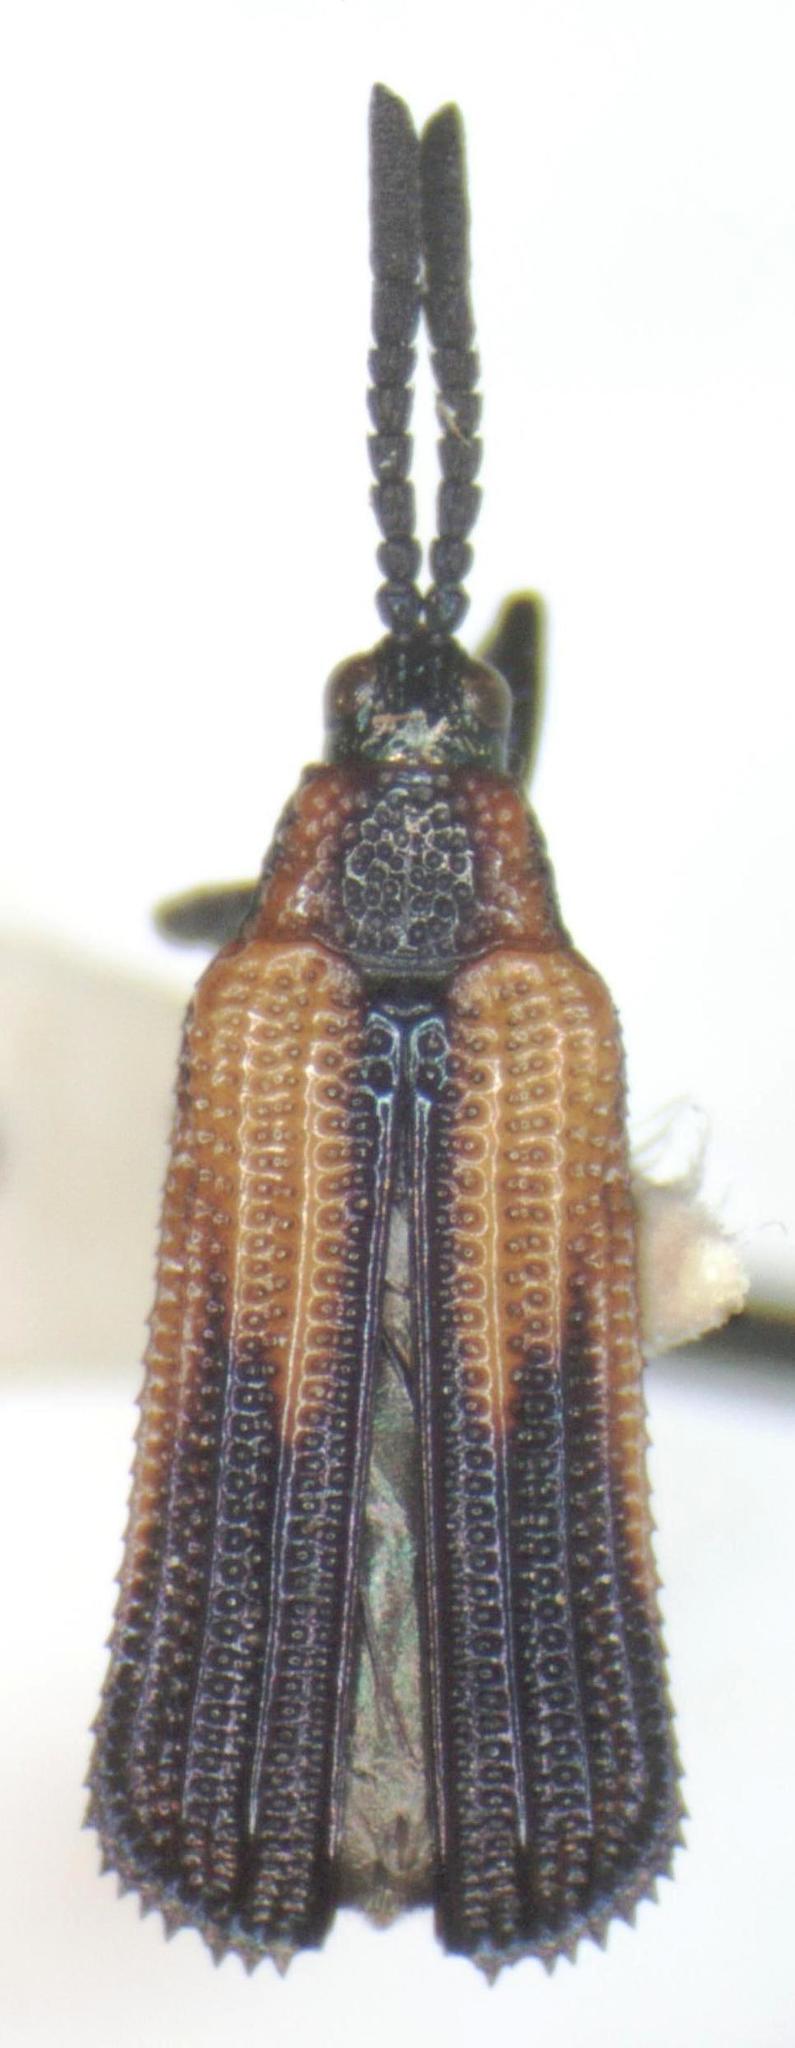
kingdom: Animalia
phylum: Arthropoda
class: Insecta
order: Coleoptera
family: Chrysomelidae
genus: Pentispa
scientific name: Pentispa melanura
